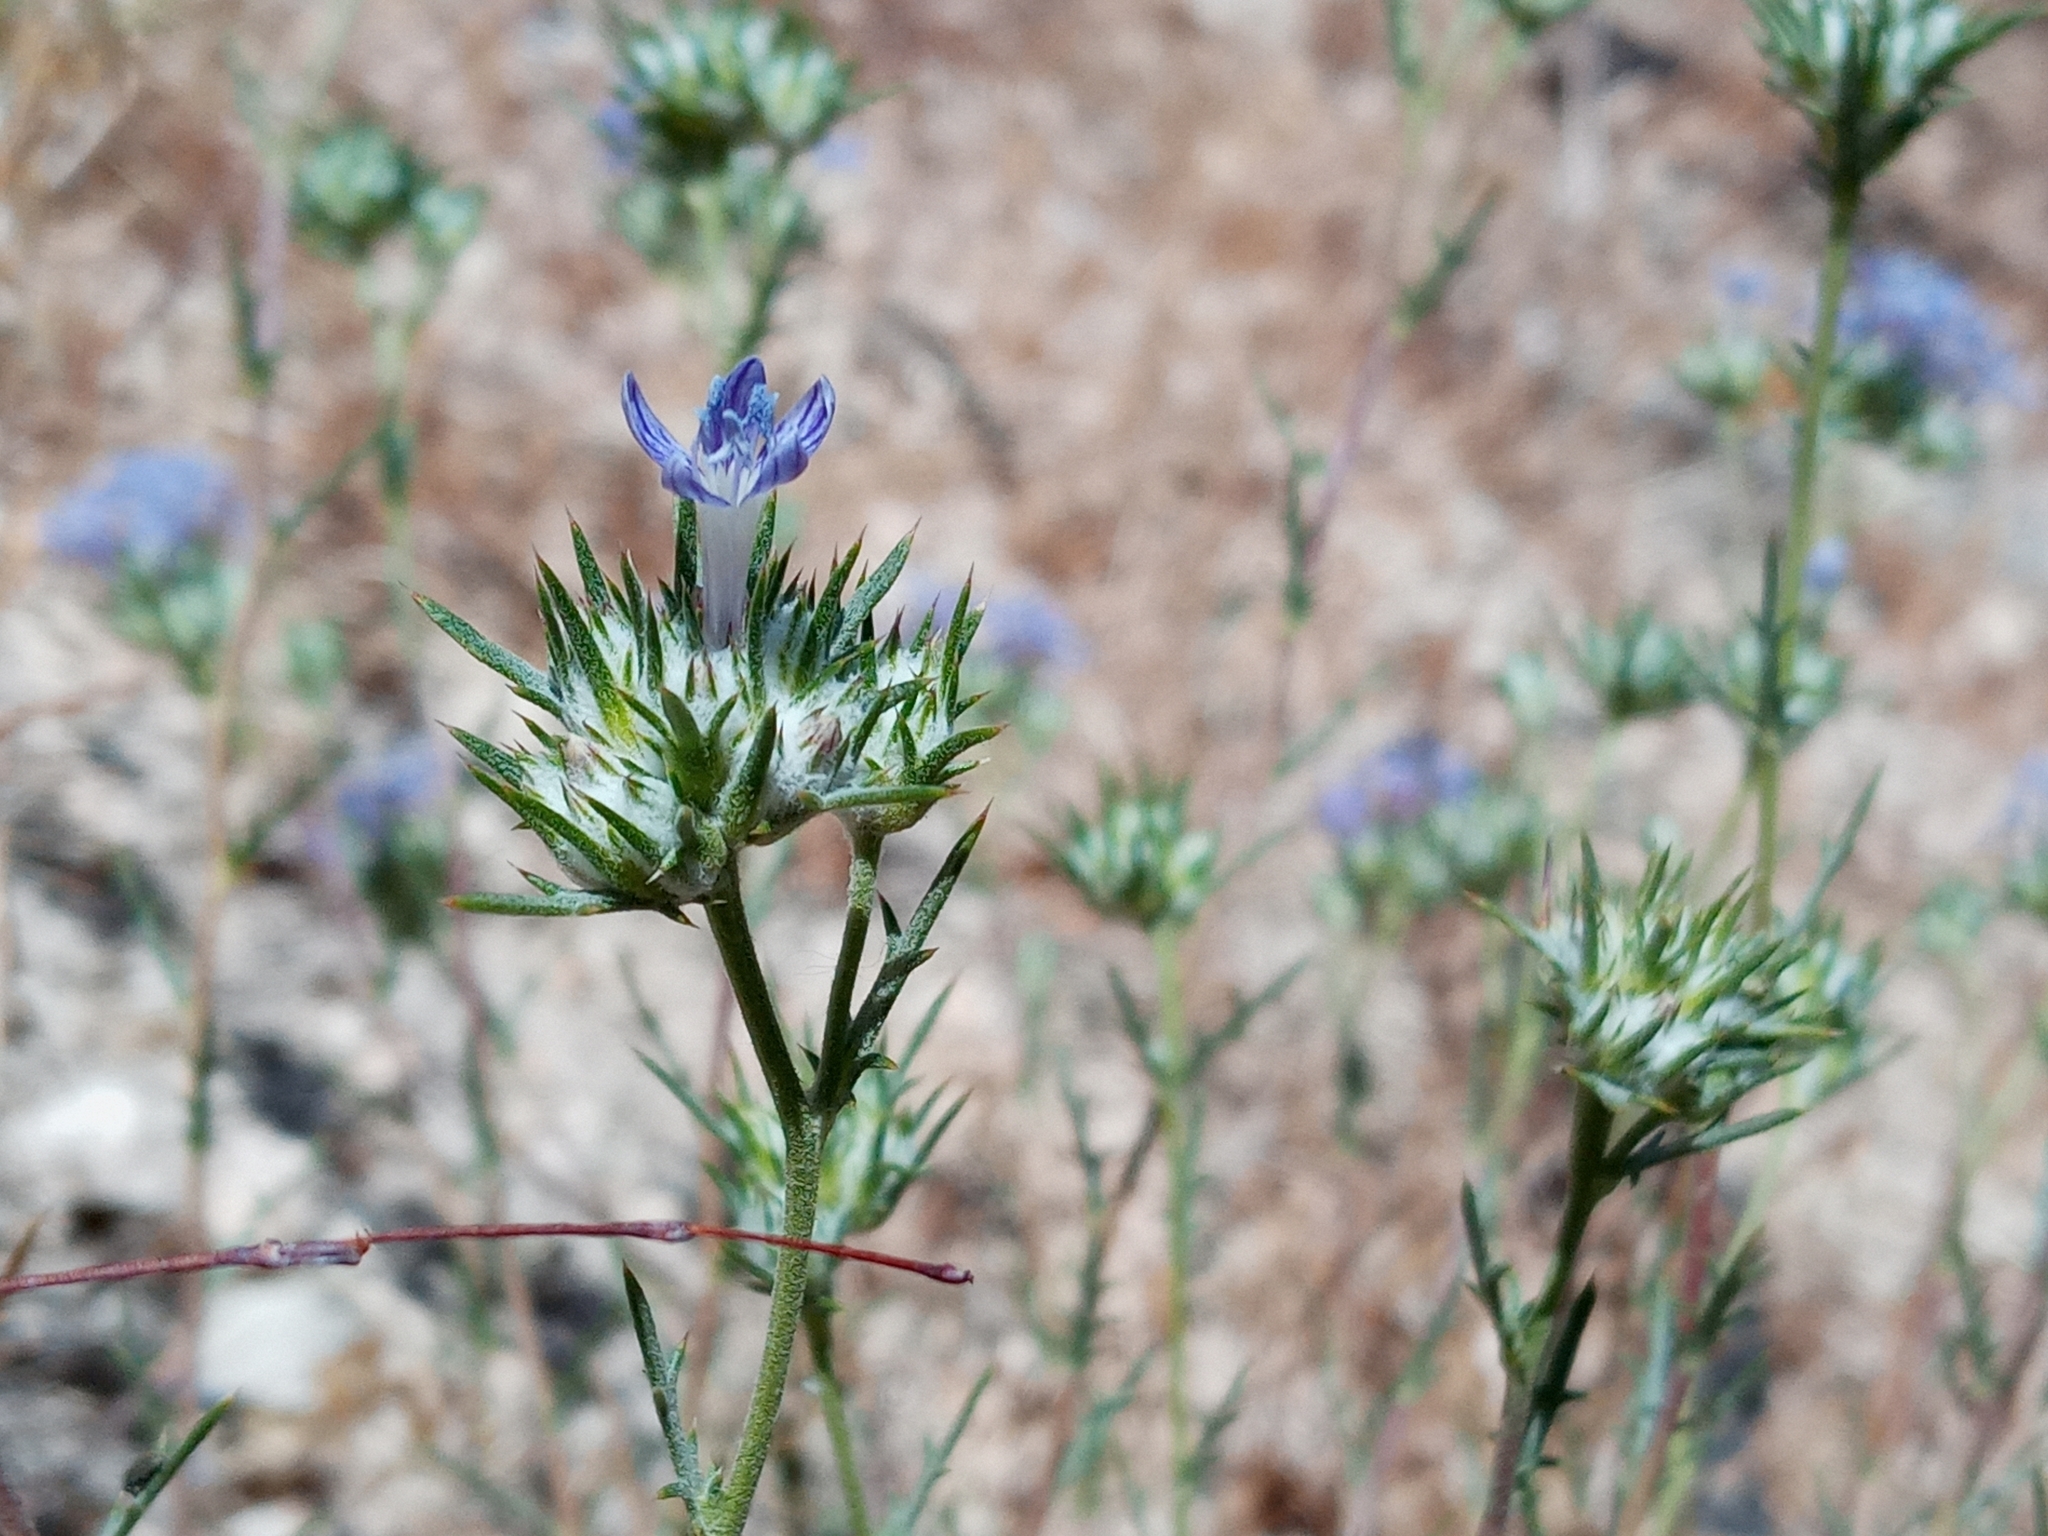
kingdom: Plantae
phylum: Tracheophyta
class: Magnoliopsida
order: Ericales
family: Polemoniaceae
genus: Eriastrum
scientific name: Eriastrum densifolium
